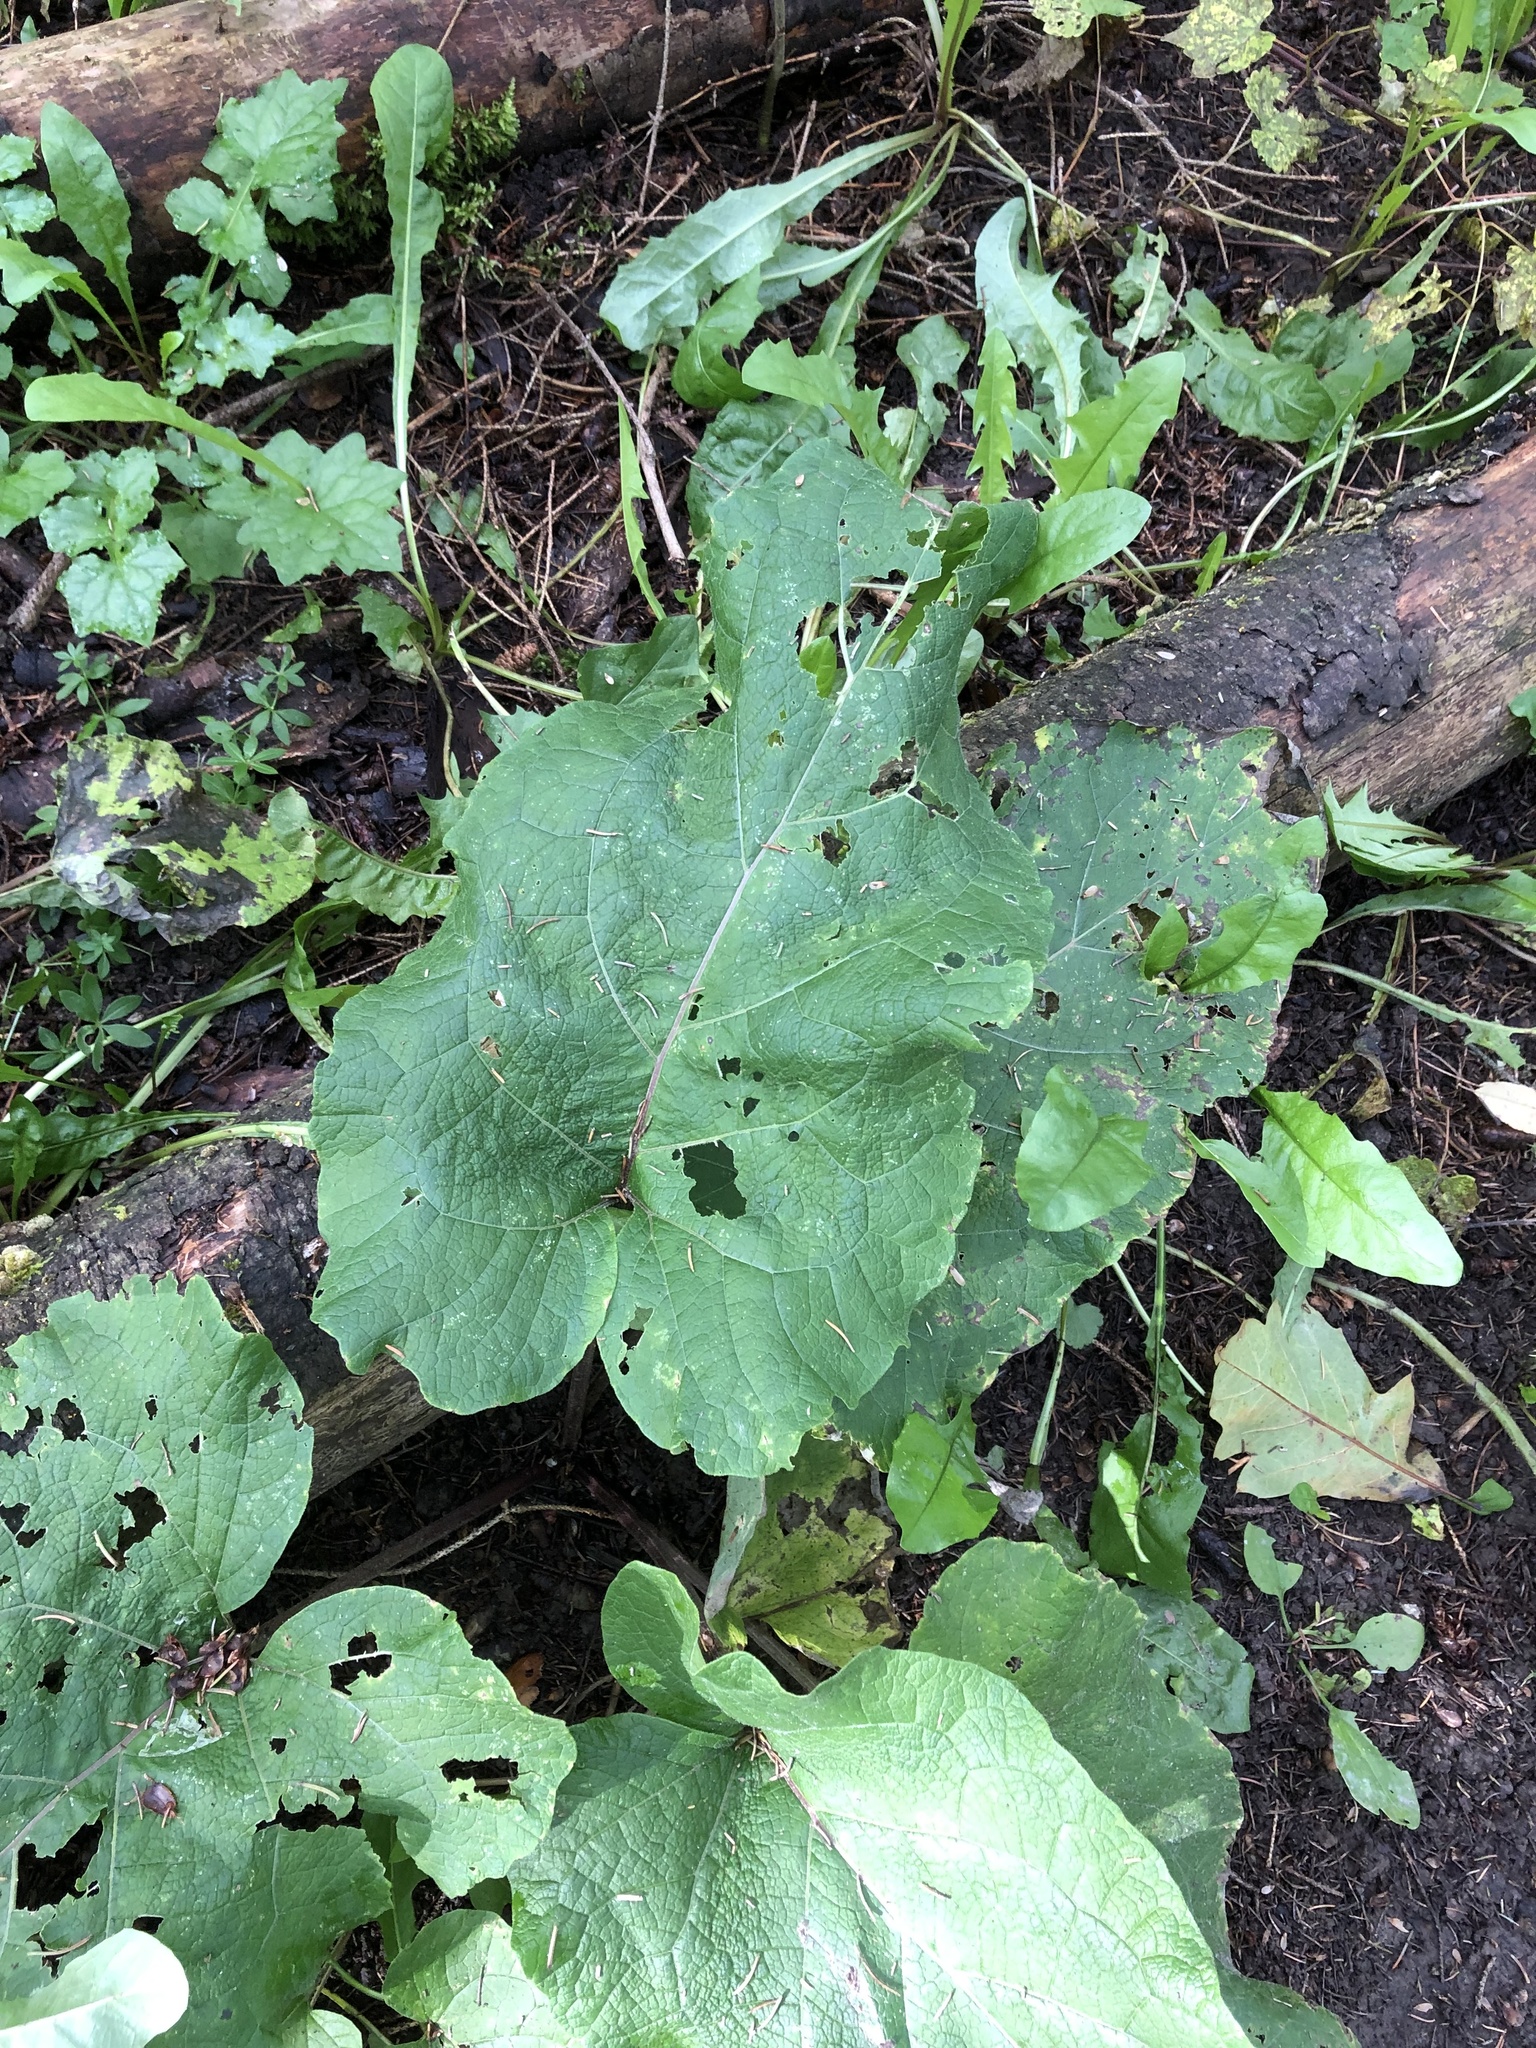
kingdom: Plantae
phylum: Tracheophyta
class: Magnoliopsida
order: Asterales
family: Asteraceae
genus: Arctium
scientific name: Arctium
